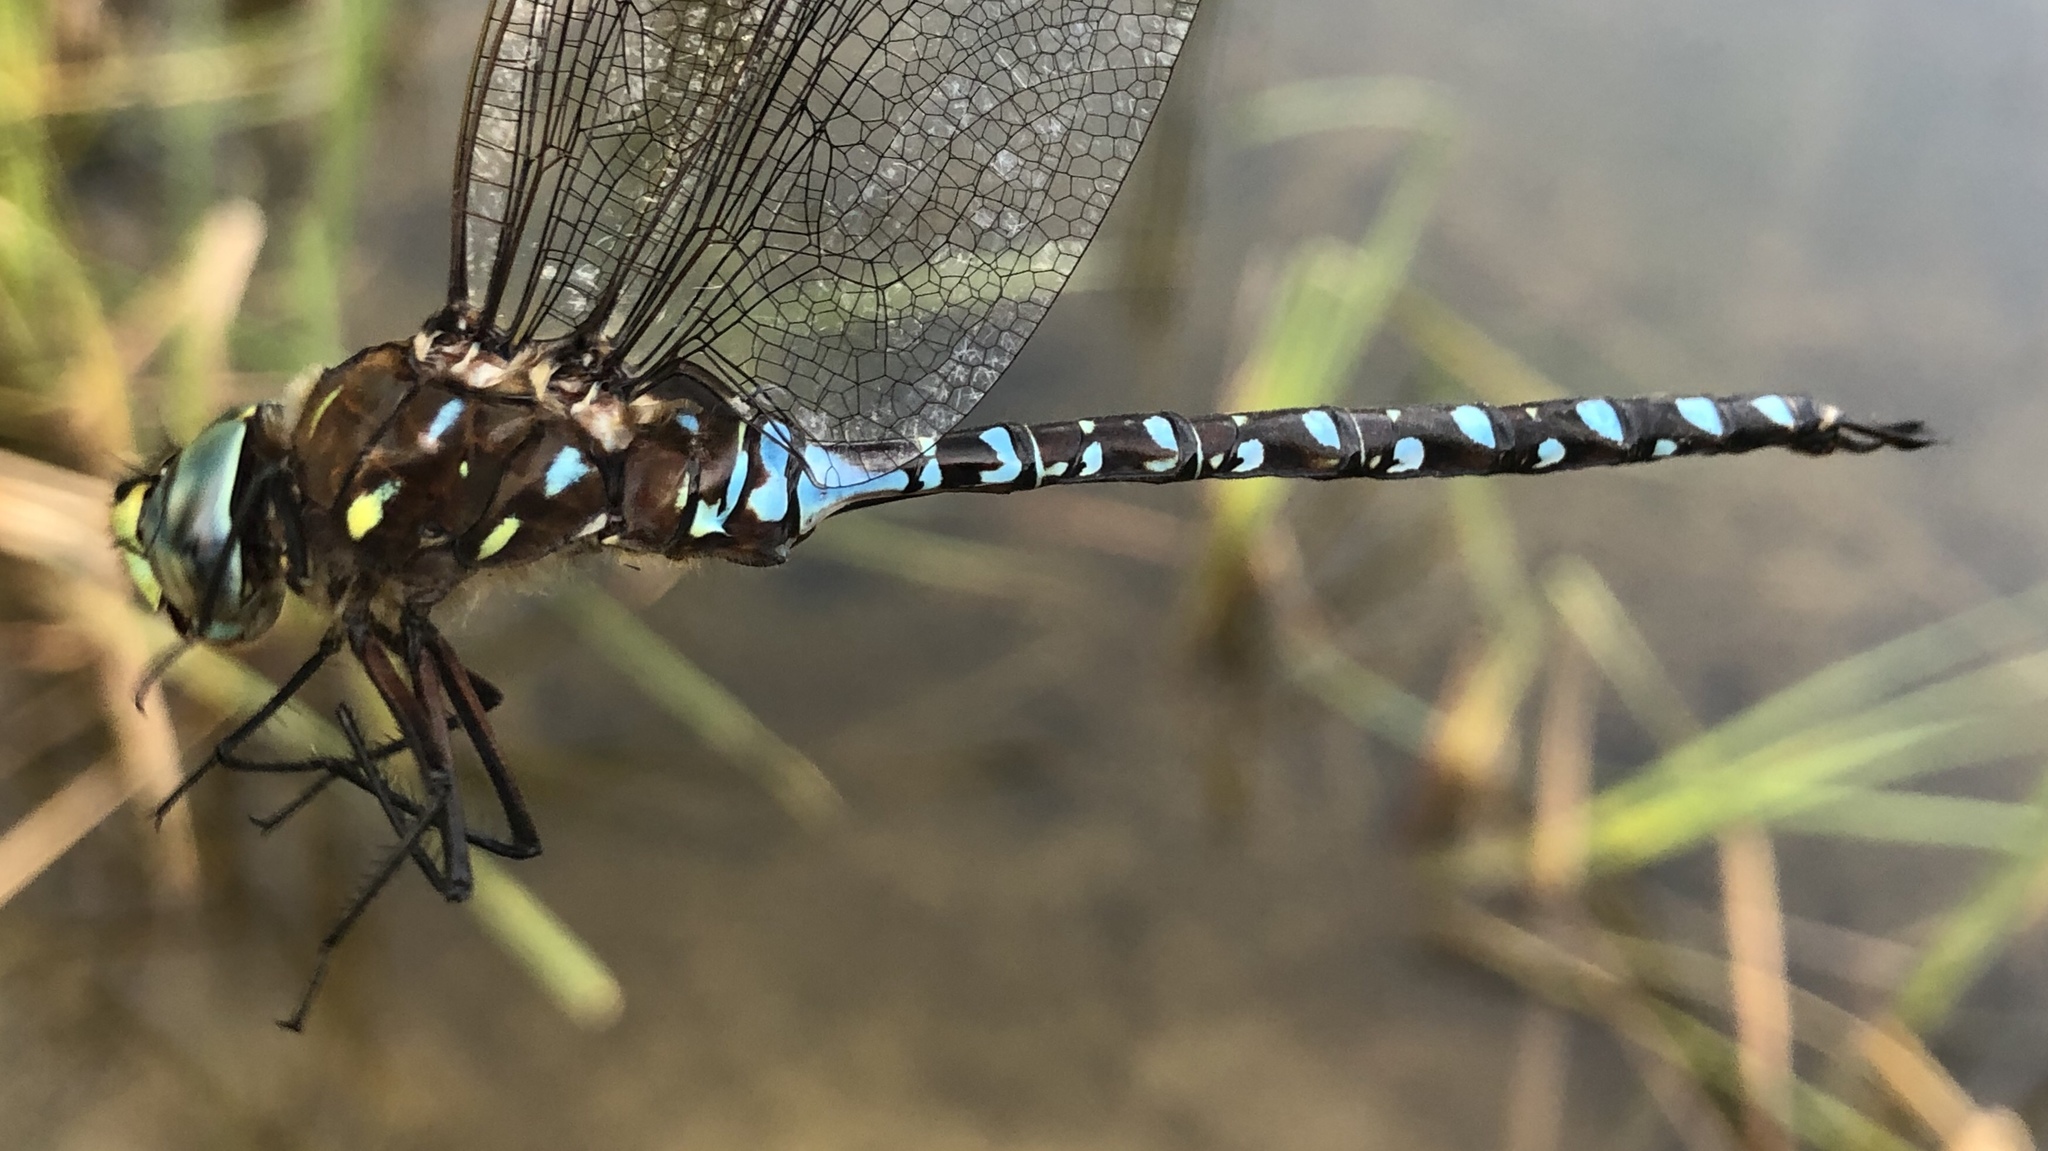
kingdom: Animalia
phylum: Arthropoda
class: Insecta
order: Odonata
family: Aeshnidae
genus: Aeshna
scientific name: Aeshna interrupta
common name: Variable darner
